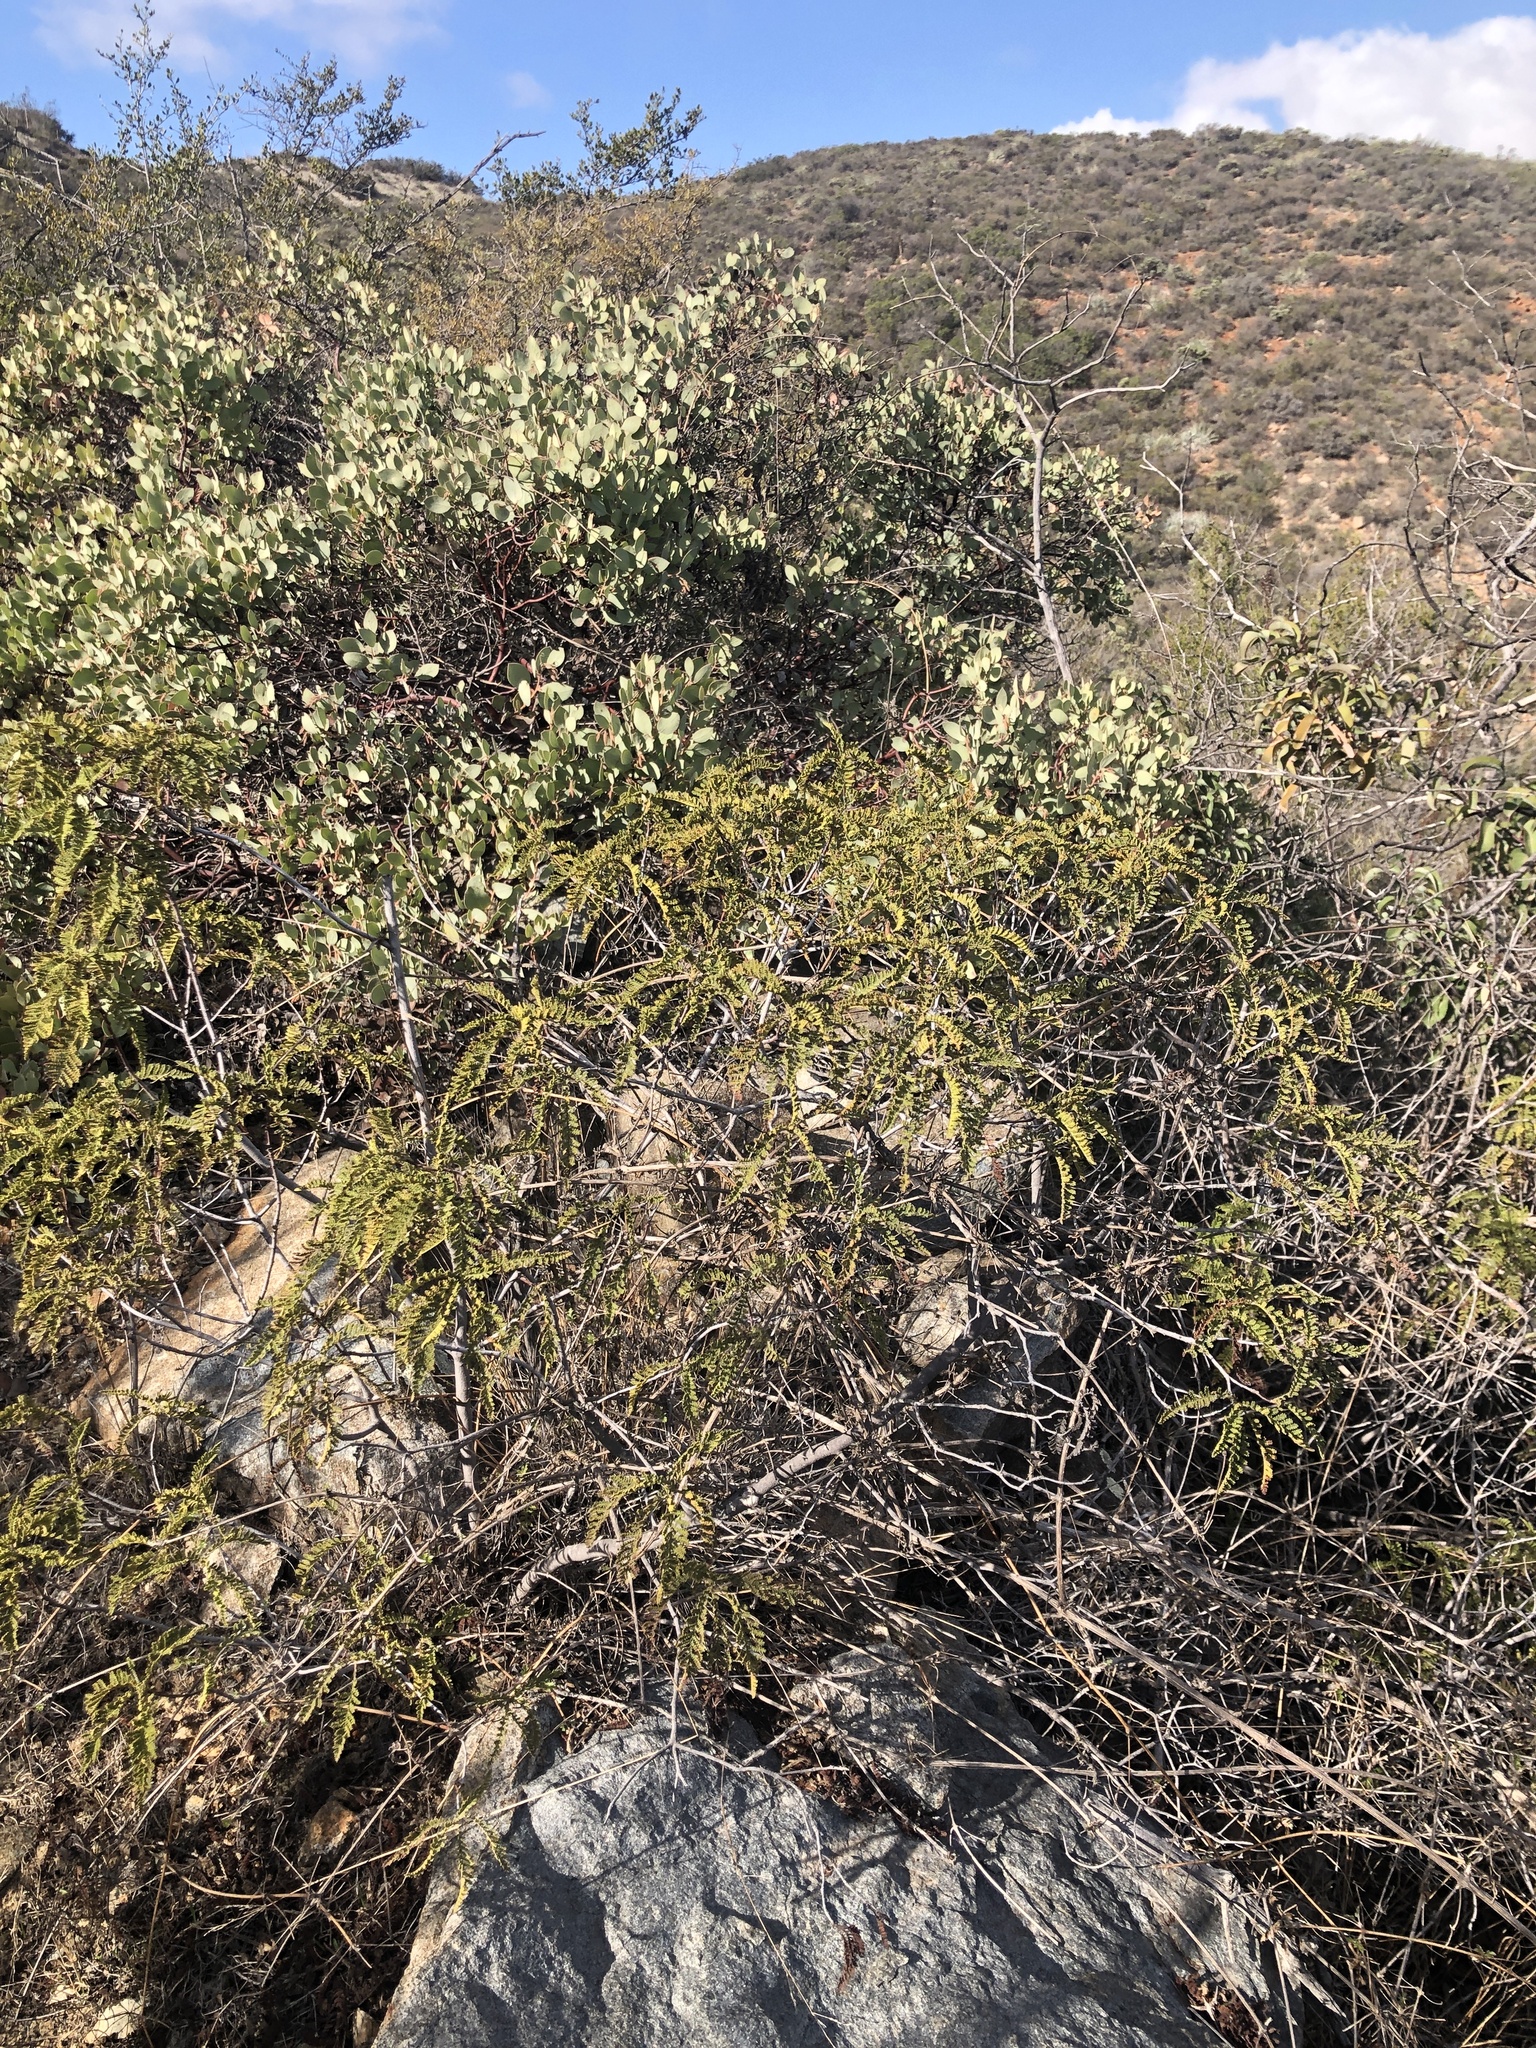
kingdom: Plantae
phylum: Tracheophyta
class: Magnoliopsida
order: Rosales
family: Rosaceae
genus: Chamaebatia
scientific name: Chamaebatia australis
